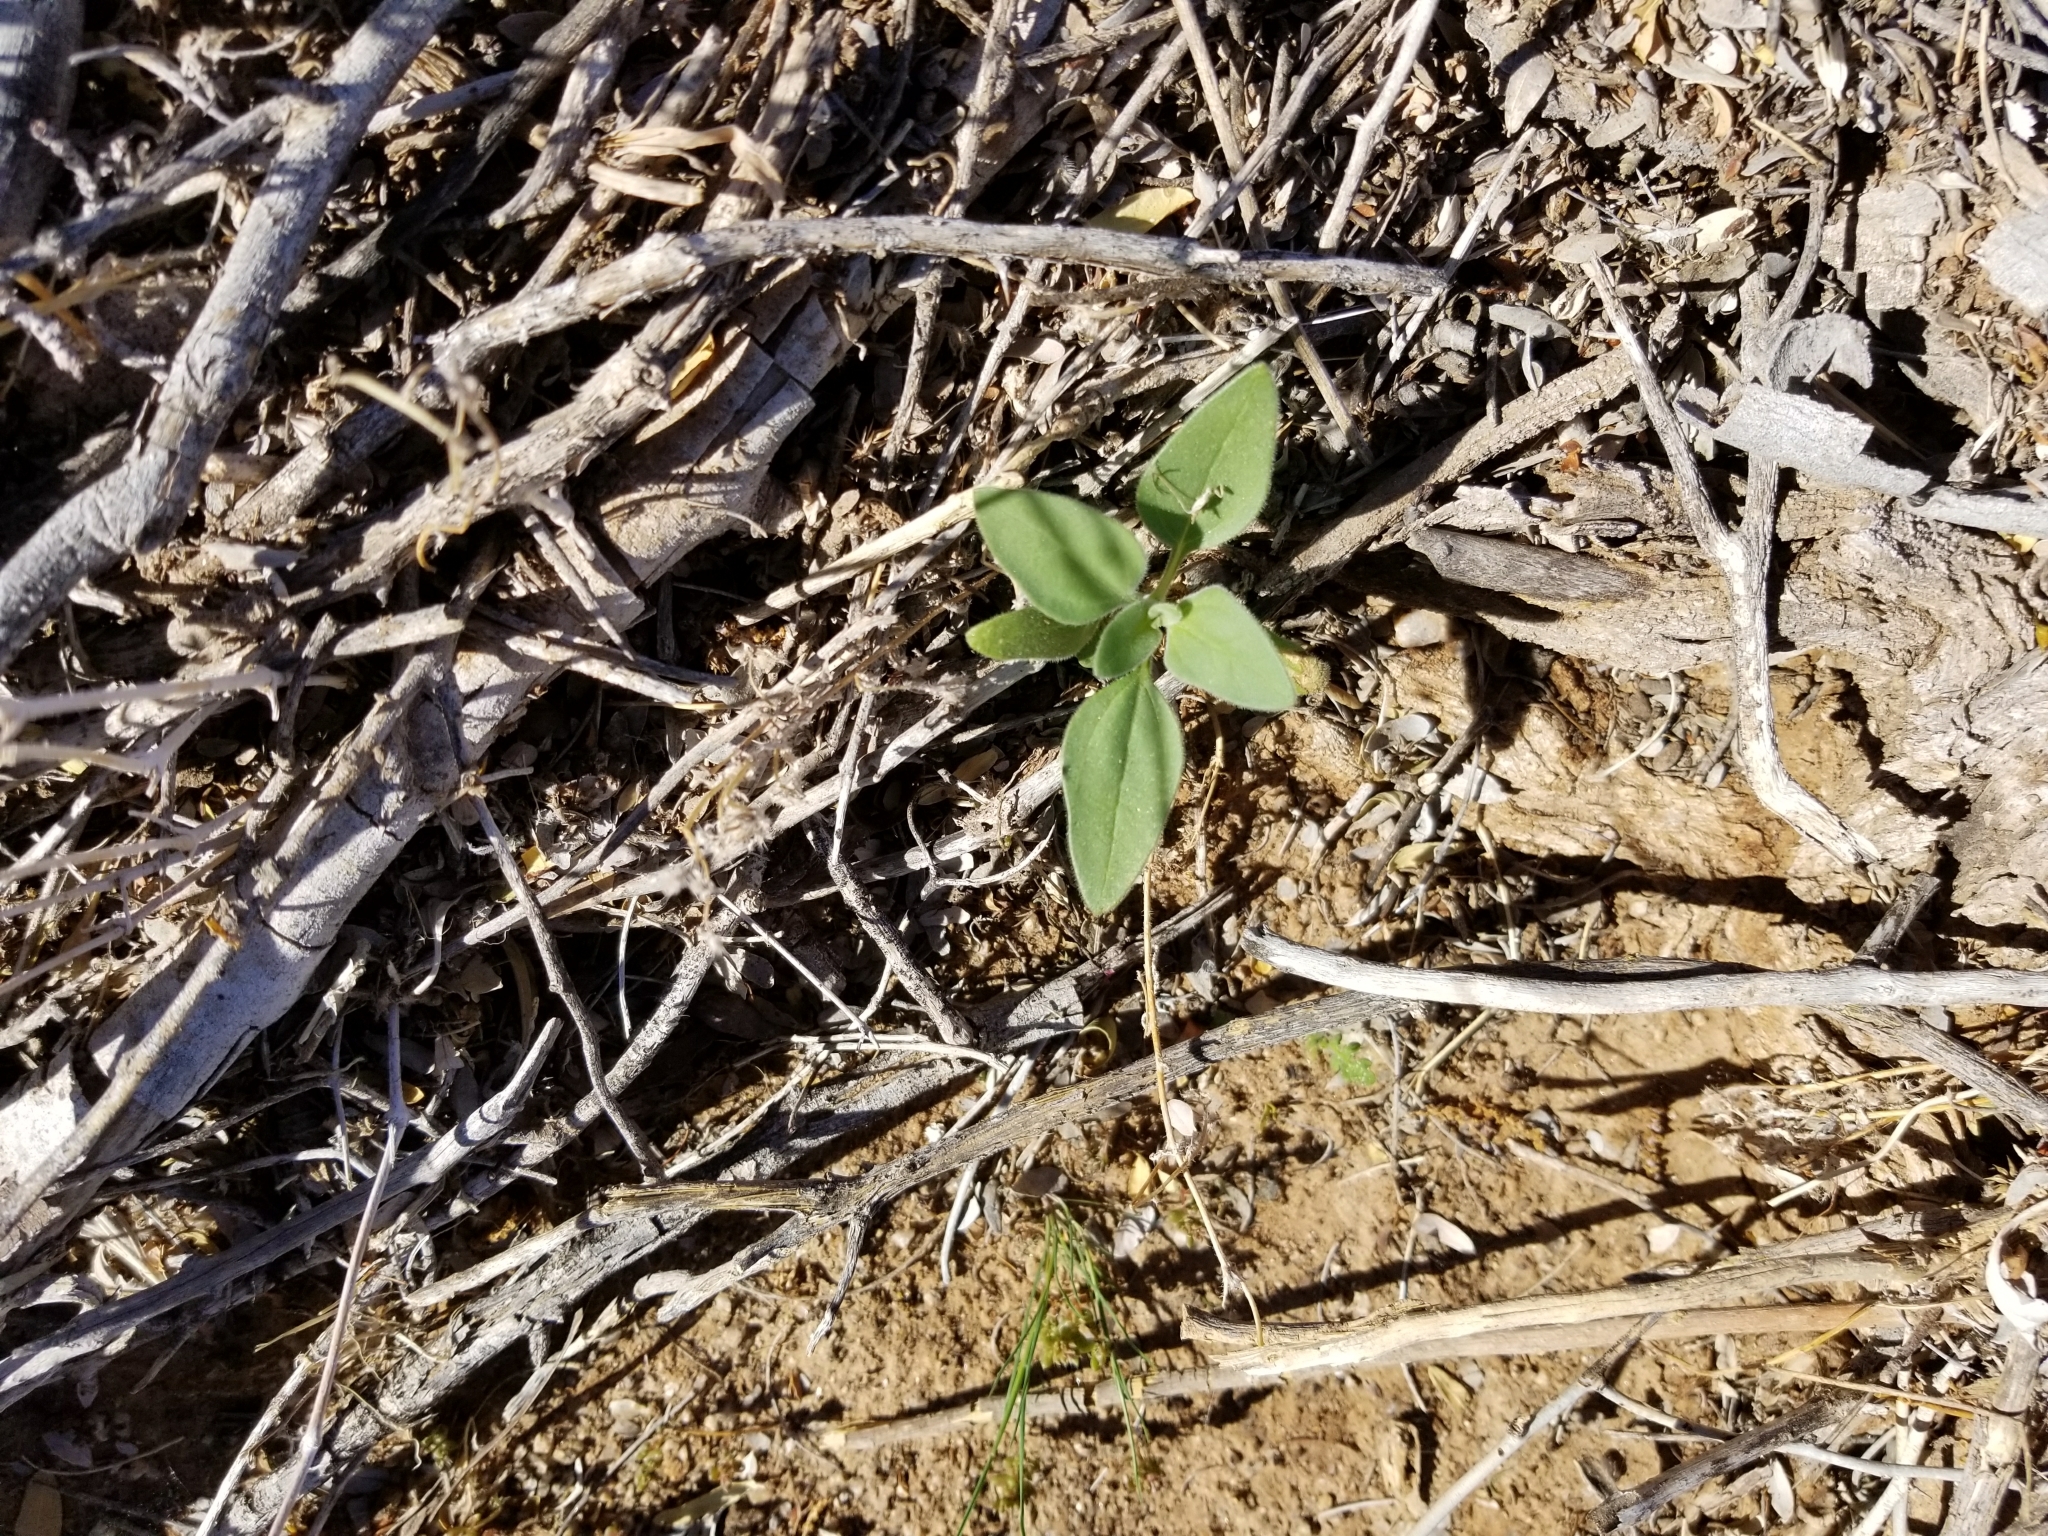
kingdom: Plantae
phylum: Tracheophyta
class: Magnoliopsida
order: Asterales
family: Asteraceae
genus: Encelia
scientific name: Encelia farinosa
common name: Brittlebush
